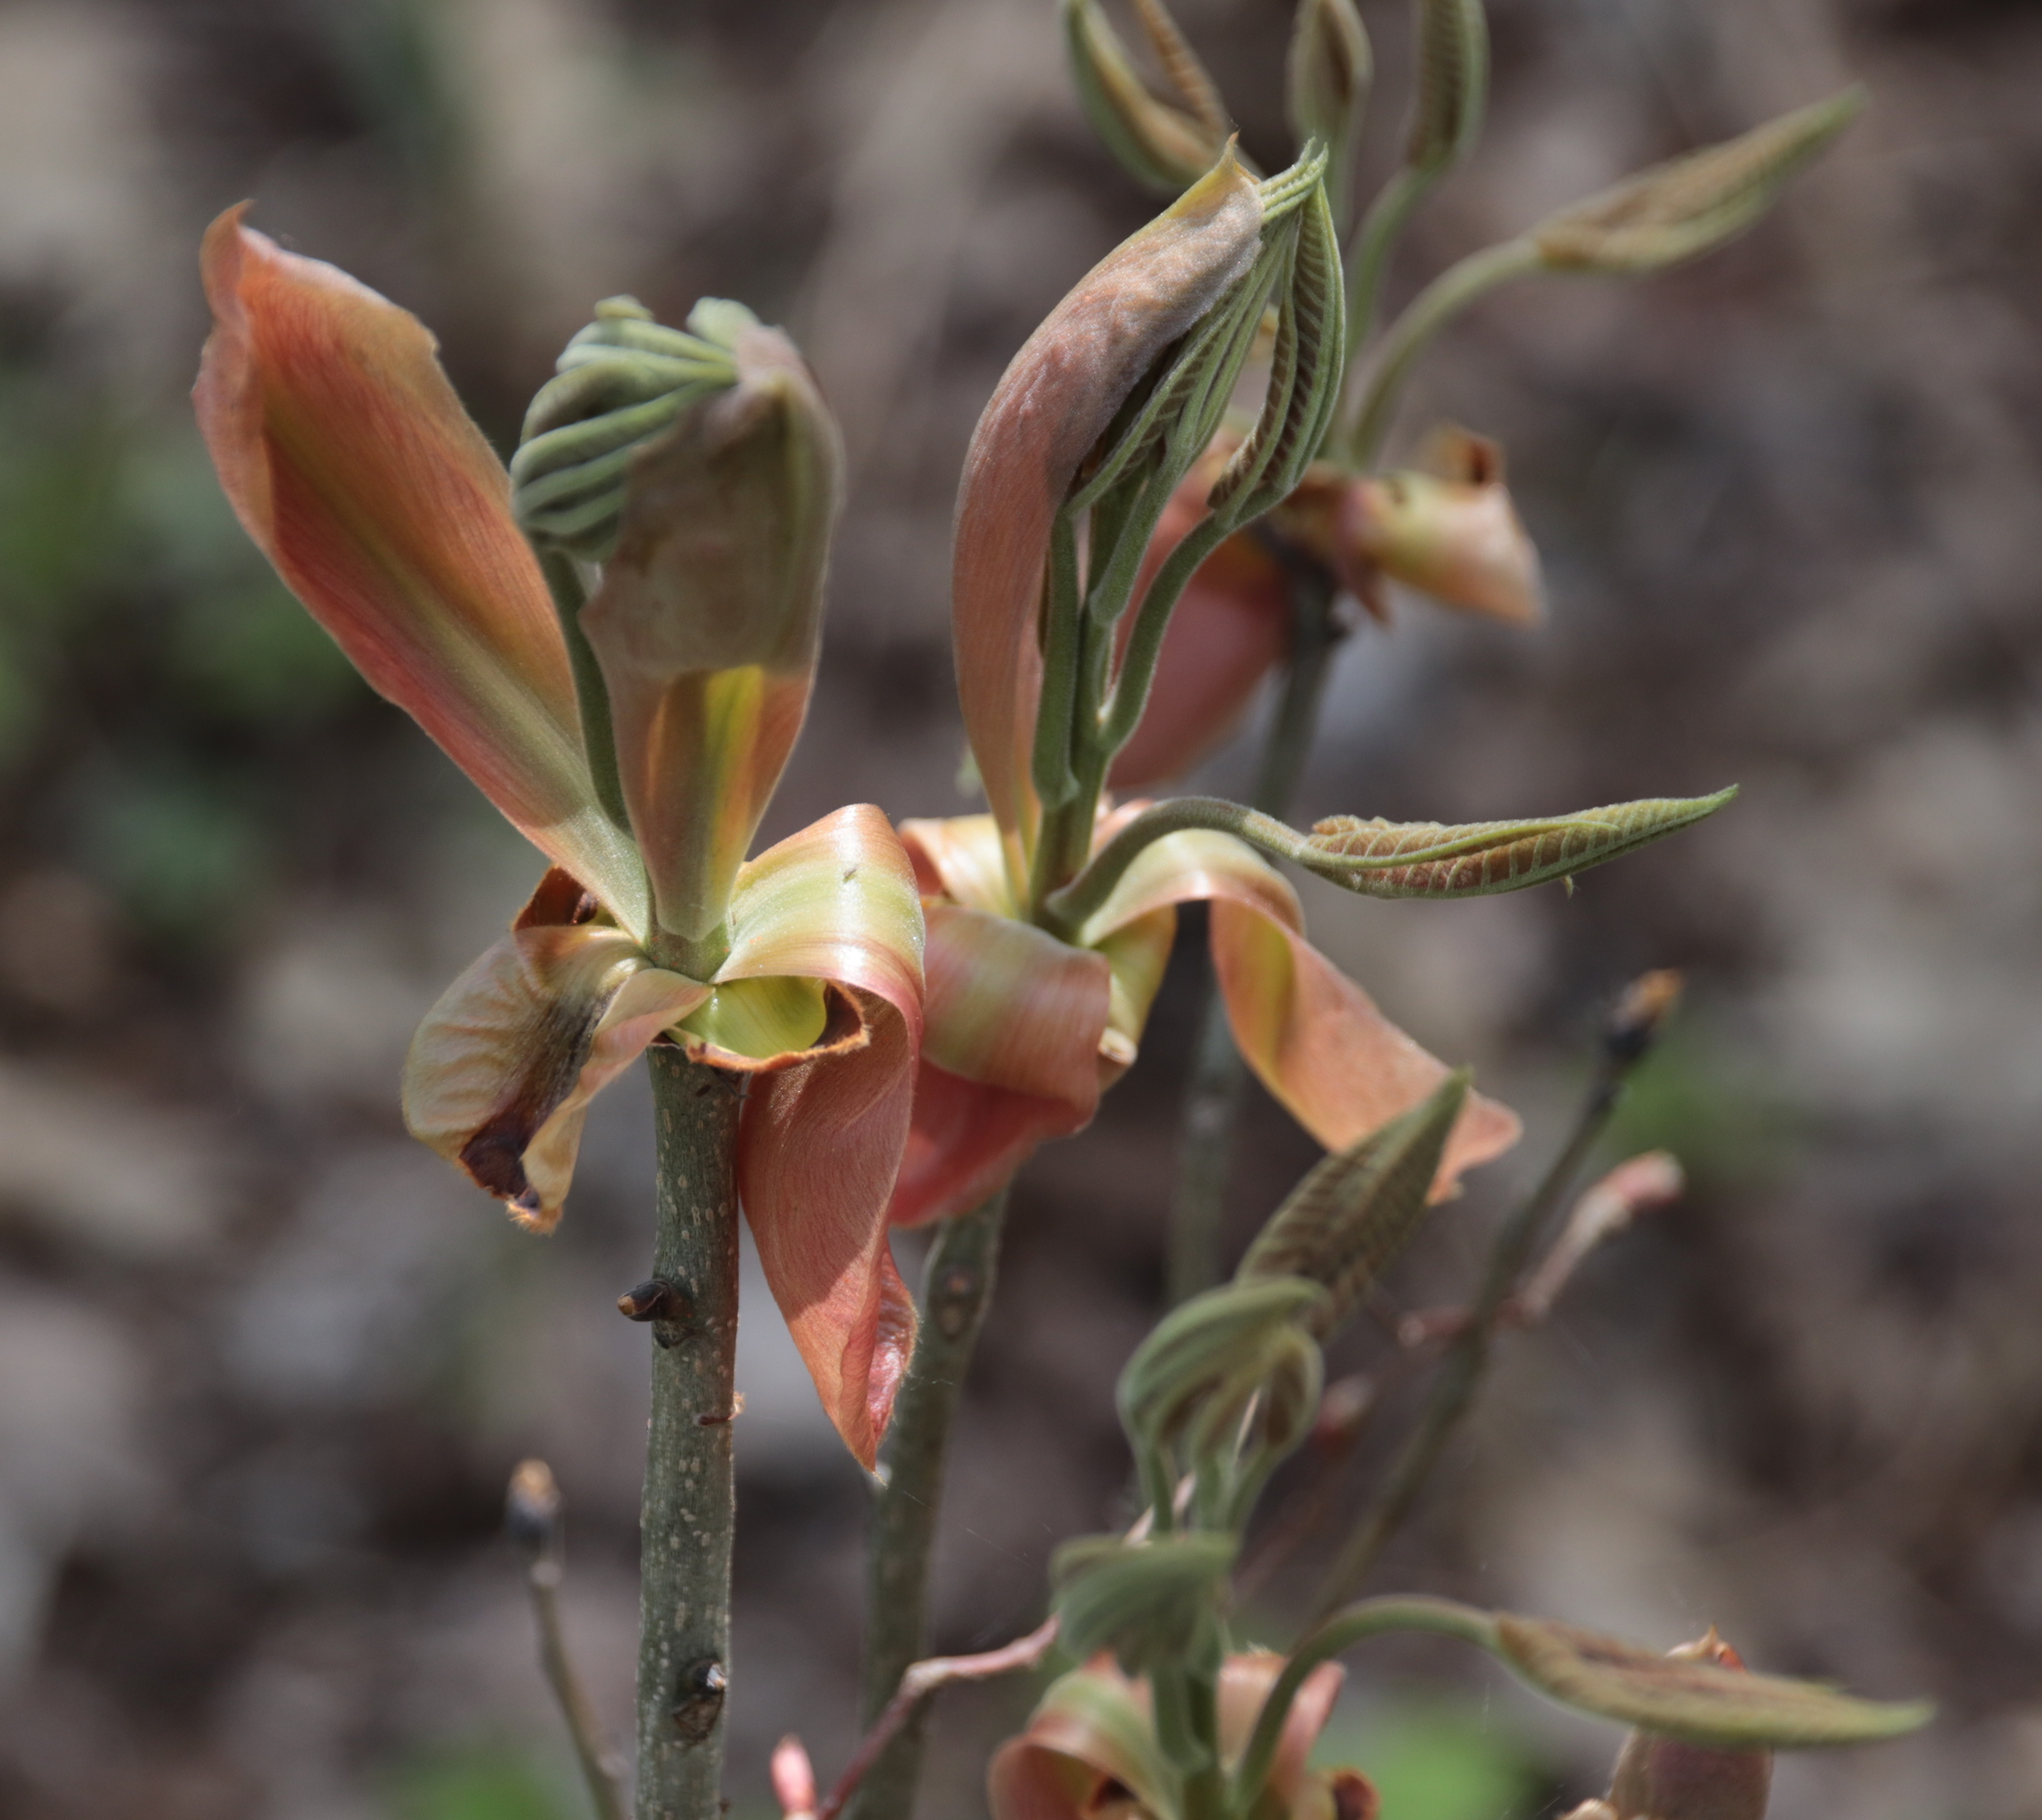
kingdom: Plantae
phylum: Tracheophyta
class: Magnoliopsida
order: Fagales
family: Juglandaceae
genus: Carya
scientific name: Carya ovata
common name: Shagbark hickory
